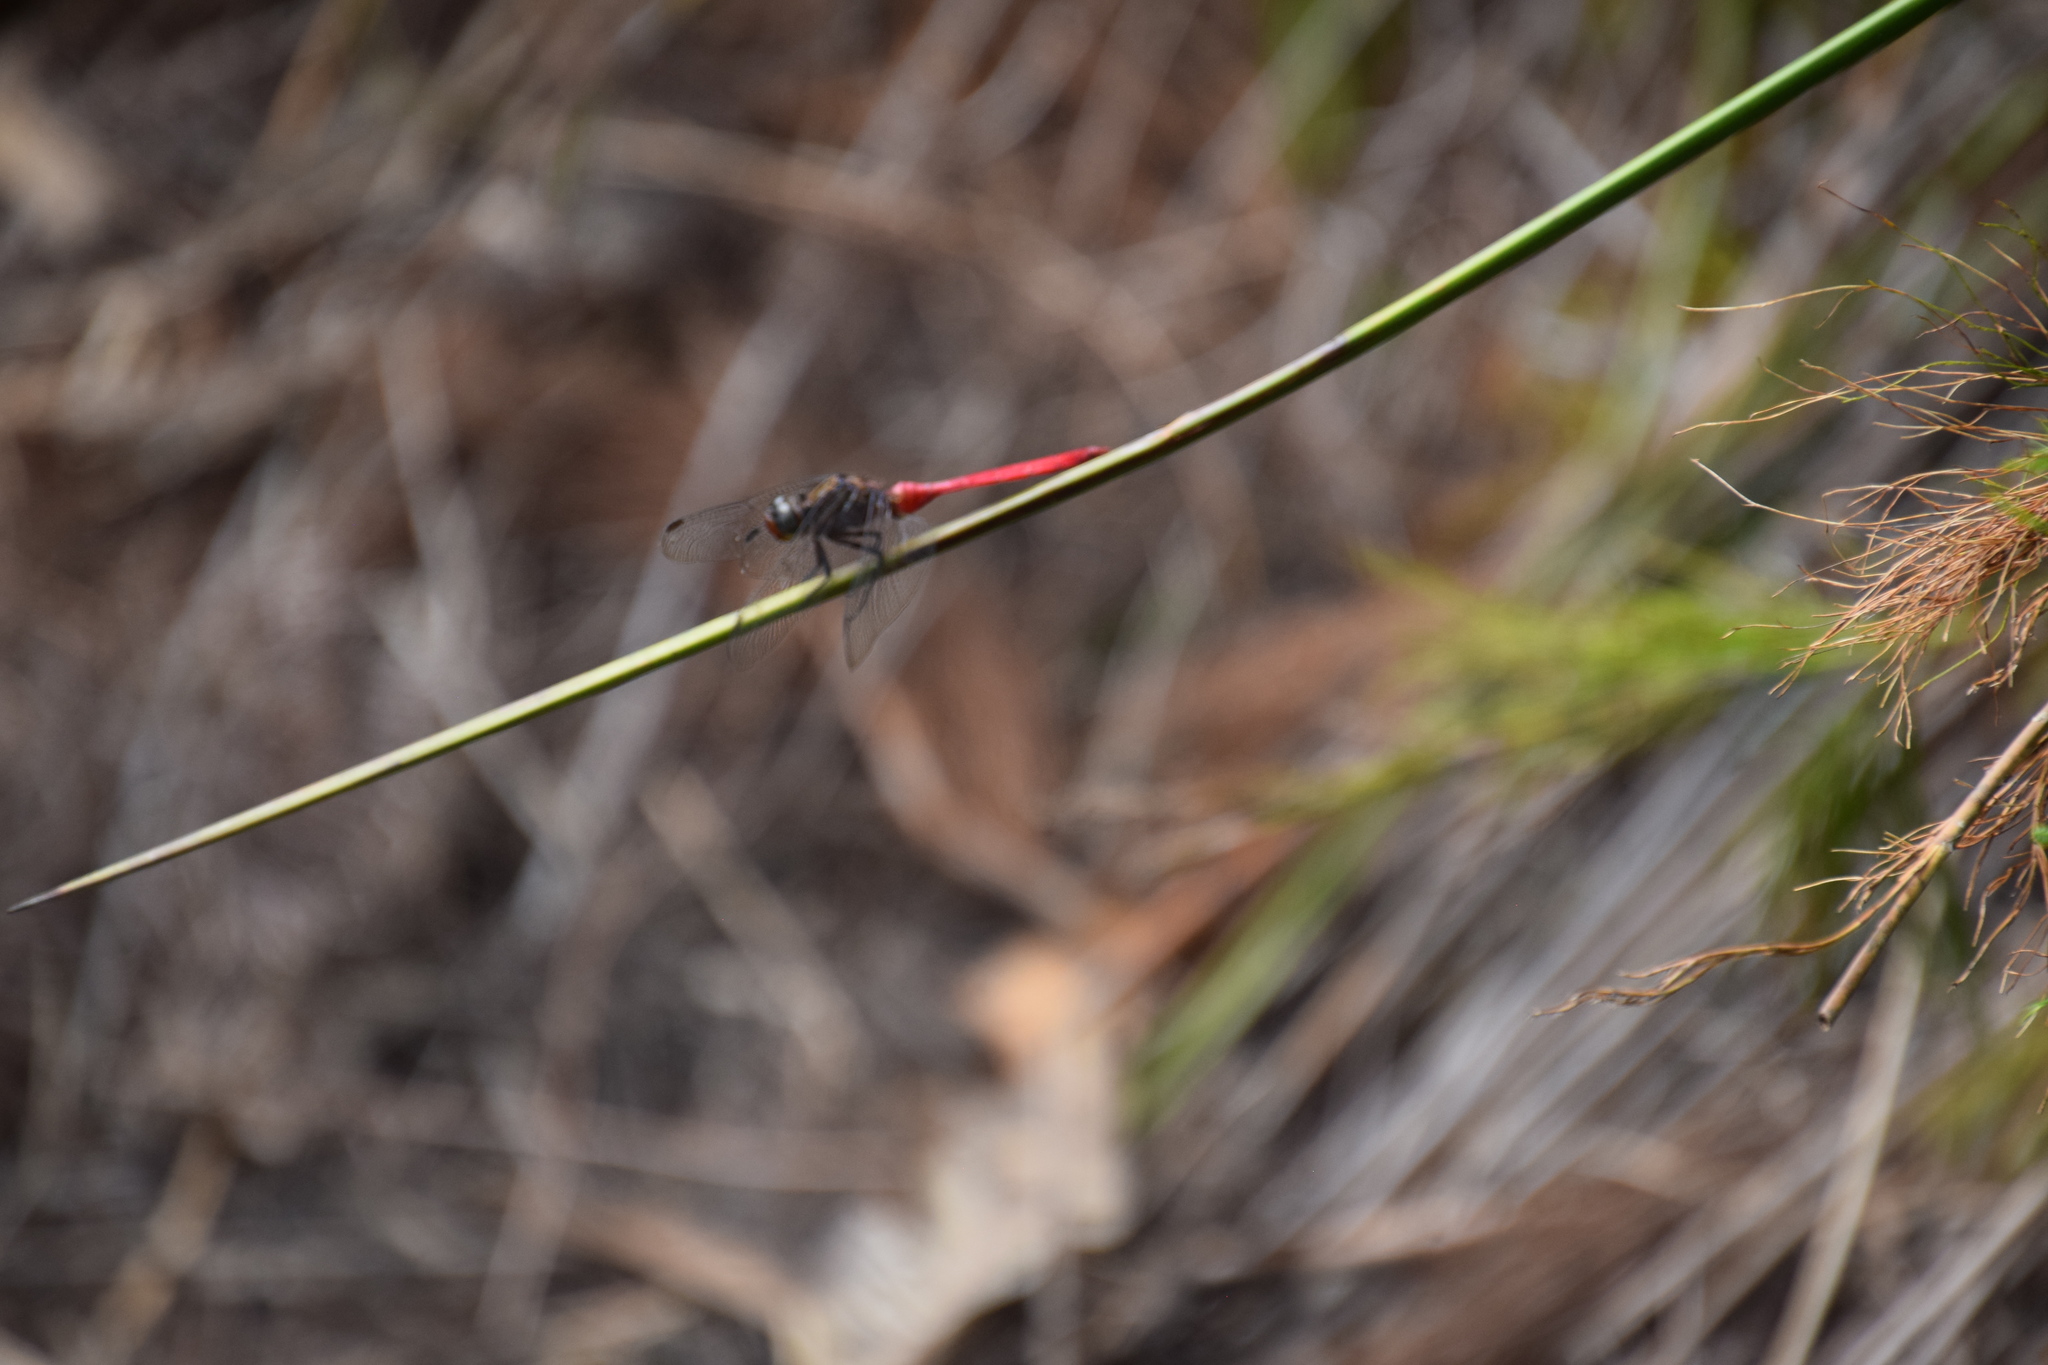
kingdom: Animalia
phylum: Arthropoda
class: Insecta
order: Odonata
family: Libellulidae
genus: Orthetrum
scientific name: Orthetrum villosovittatum
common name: Firery skimmer
